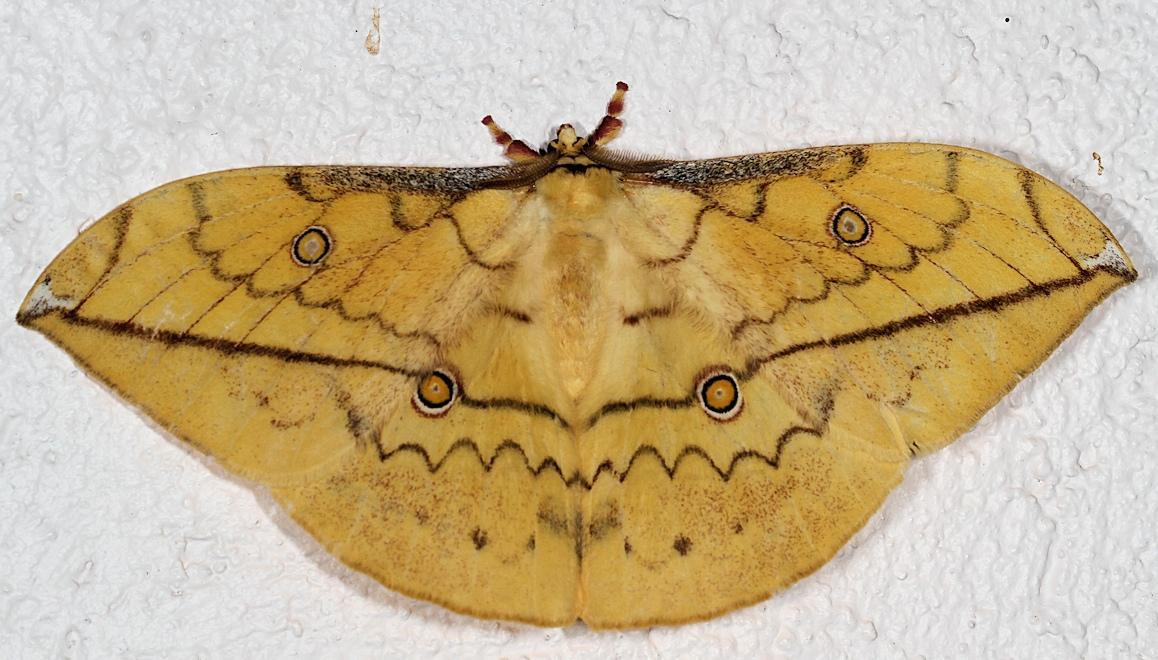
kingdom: Animalia
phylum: Arthropoda
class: Insecta
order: Lepidoptera
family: Saturniidae
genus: Pselaphelia
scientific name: Pselaphelia flavivitta
